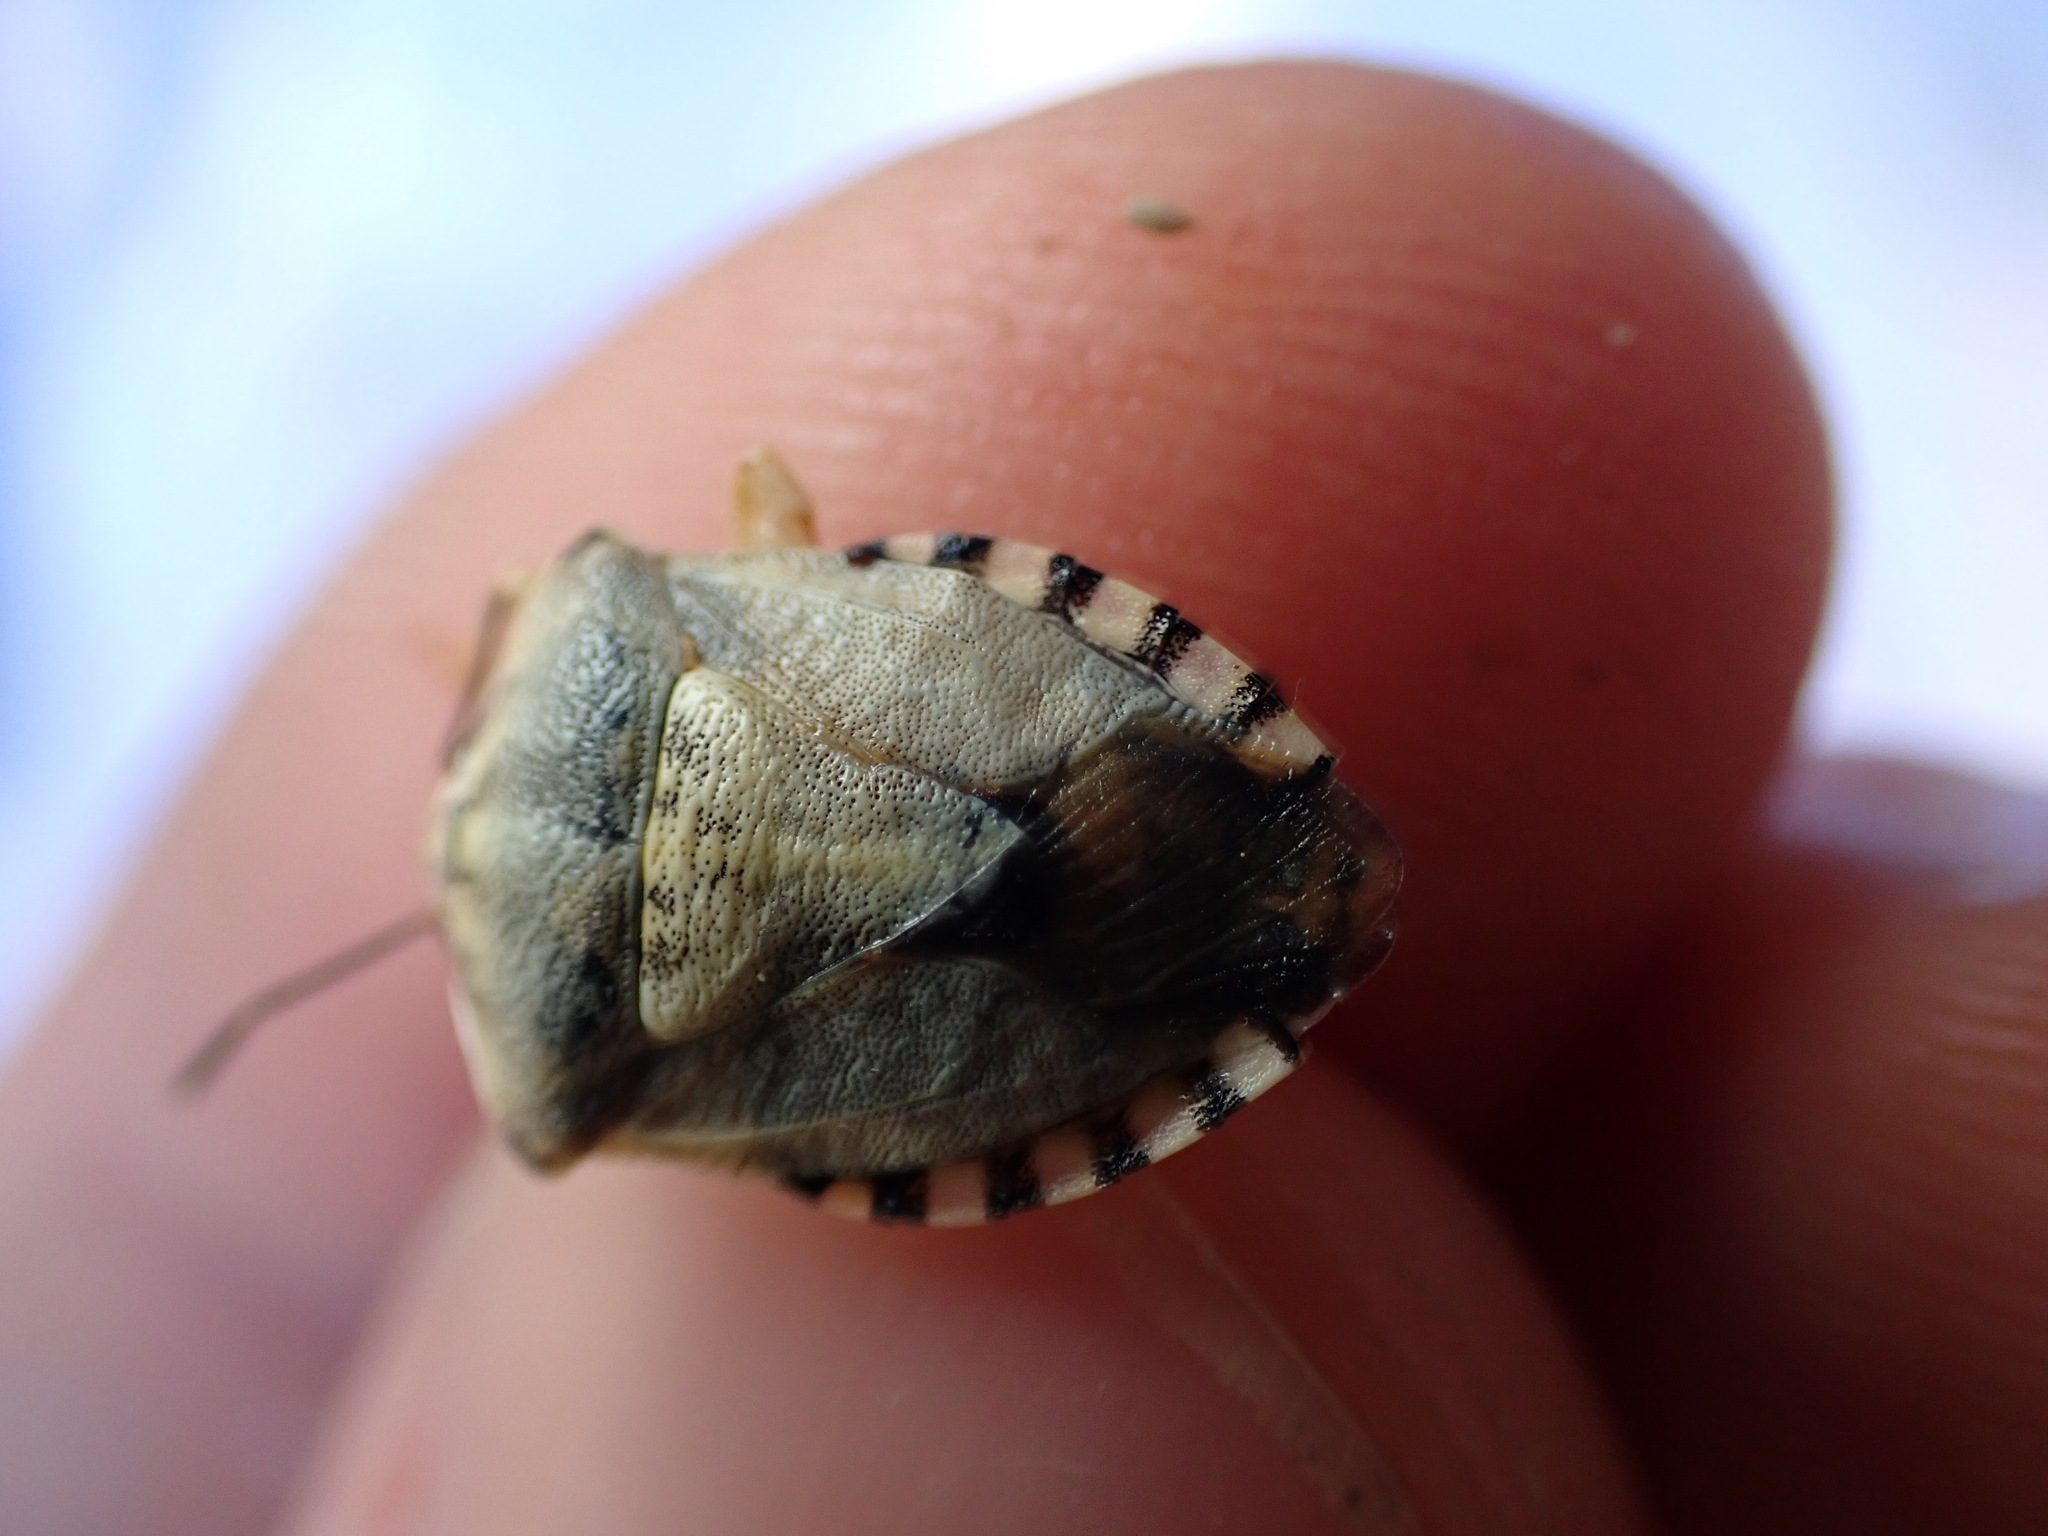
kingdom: Animalia
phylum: Arthropoda
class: Insecta
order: Hemiptera
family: Pentatomidae
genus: Carpocoris
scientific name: Carpocoris purpureipennis
